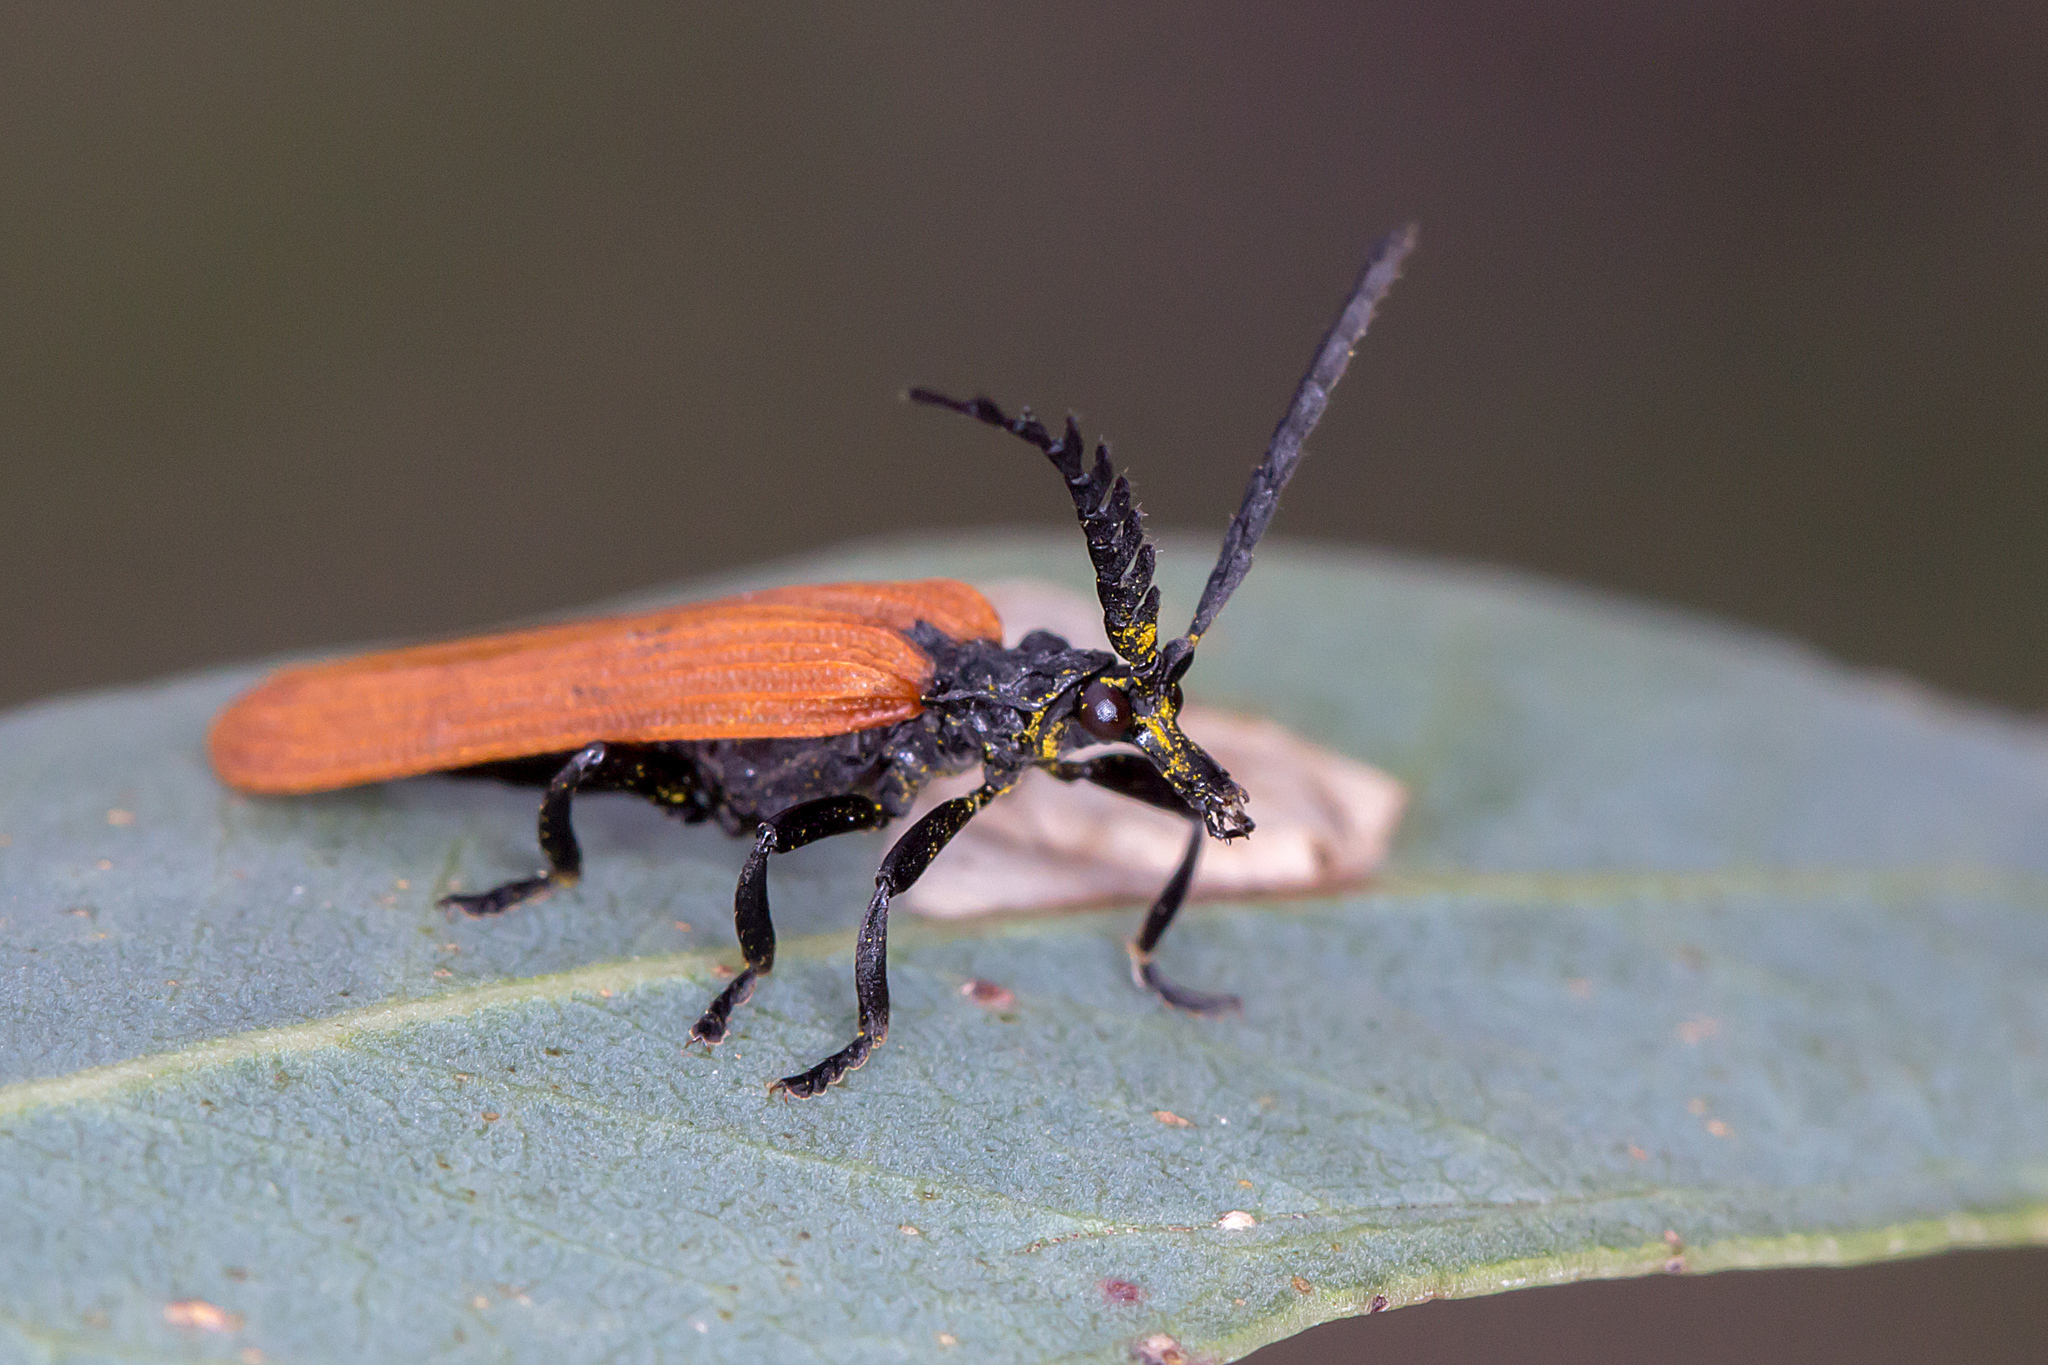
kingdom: Animalia
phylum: Arthropoda
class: Insecta
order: Coleoptera
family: Lycidae
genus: Porrostoma
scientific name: Porrostoma rhipidium
